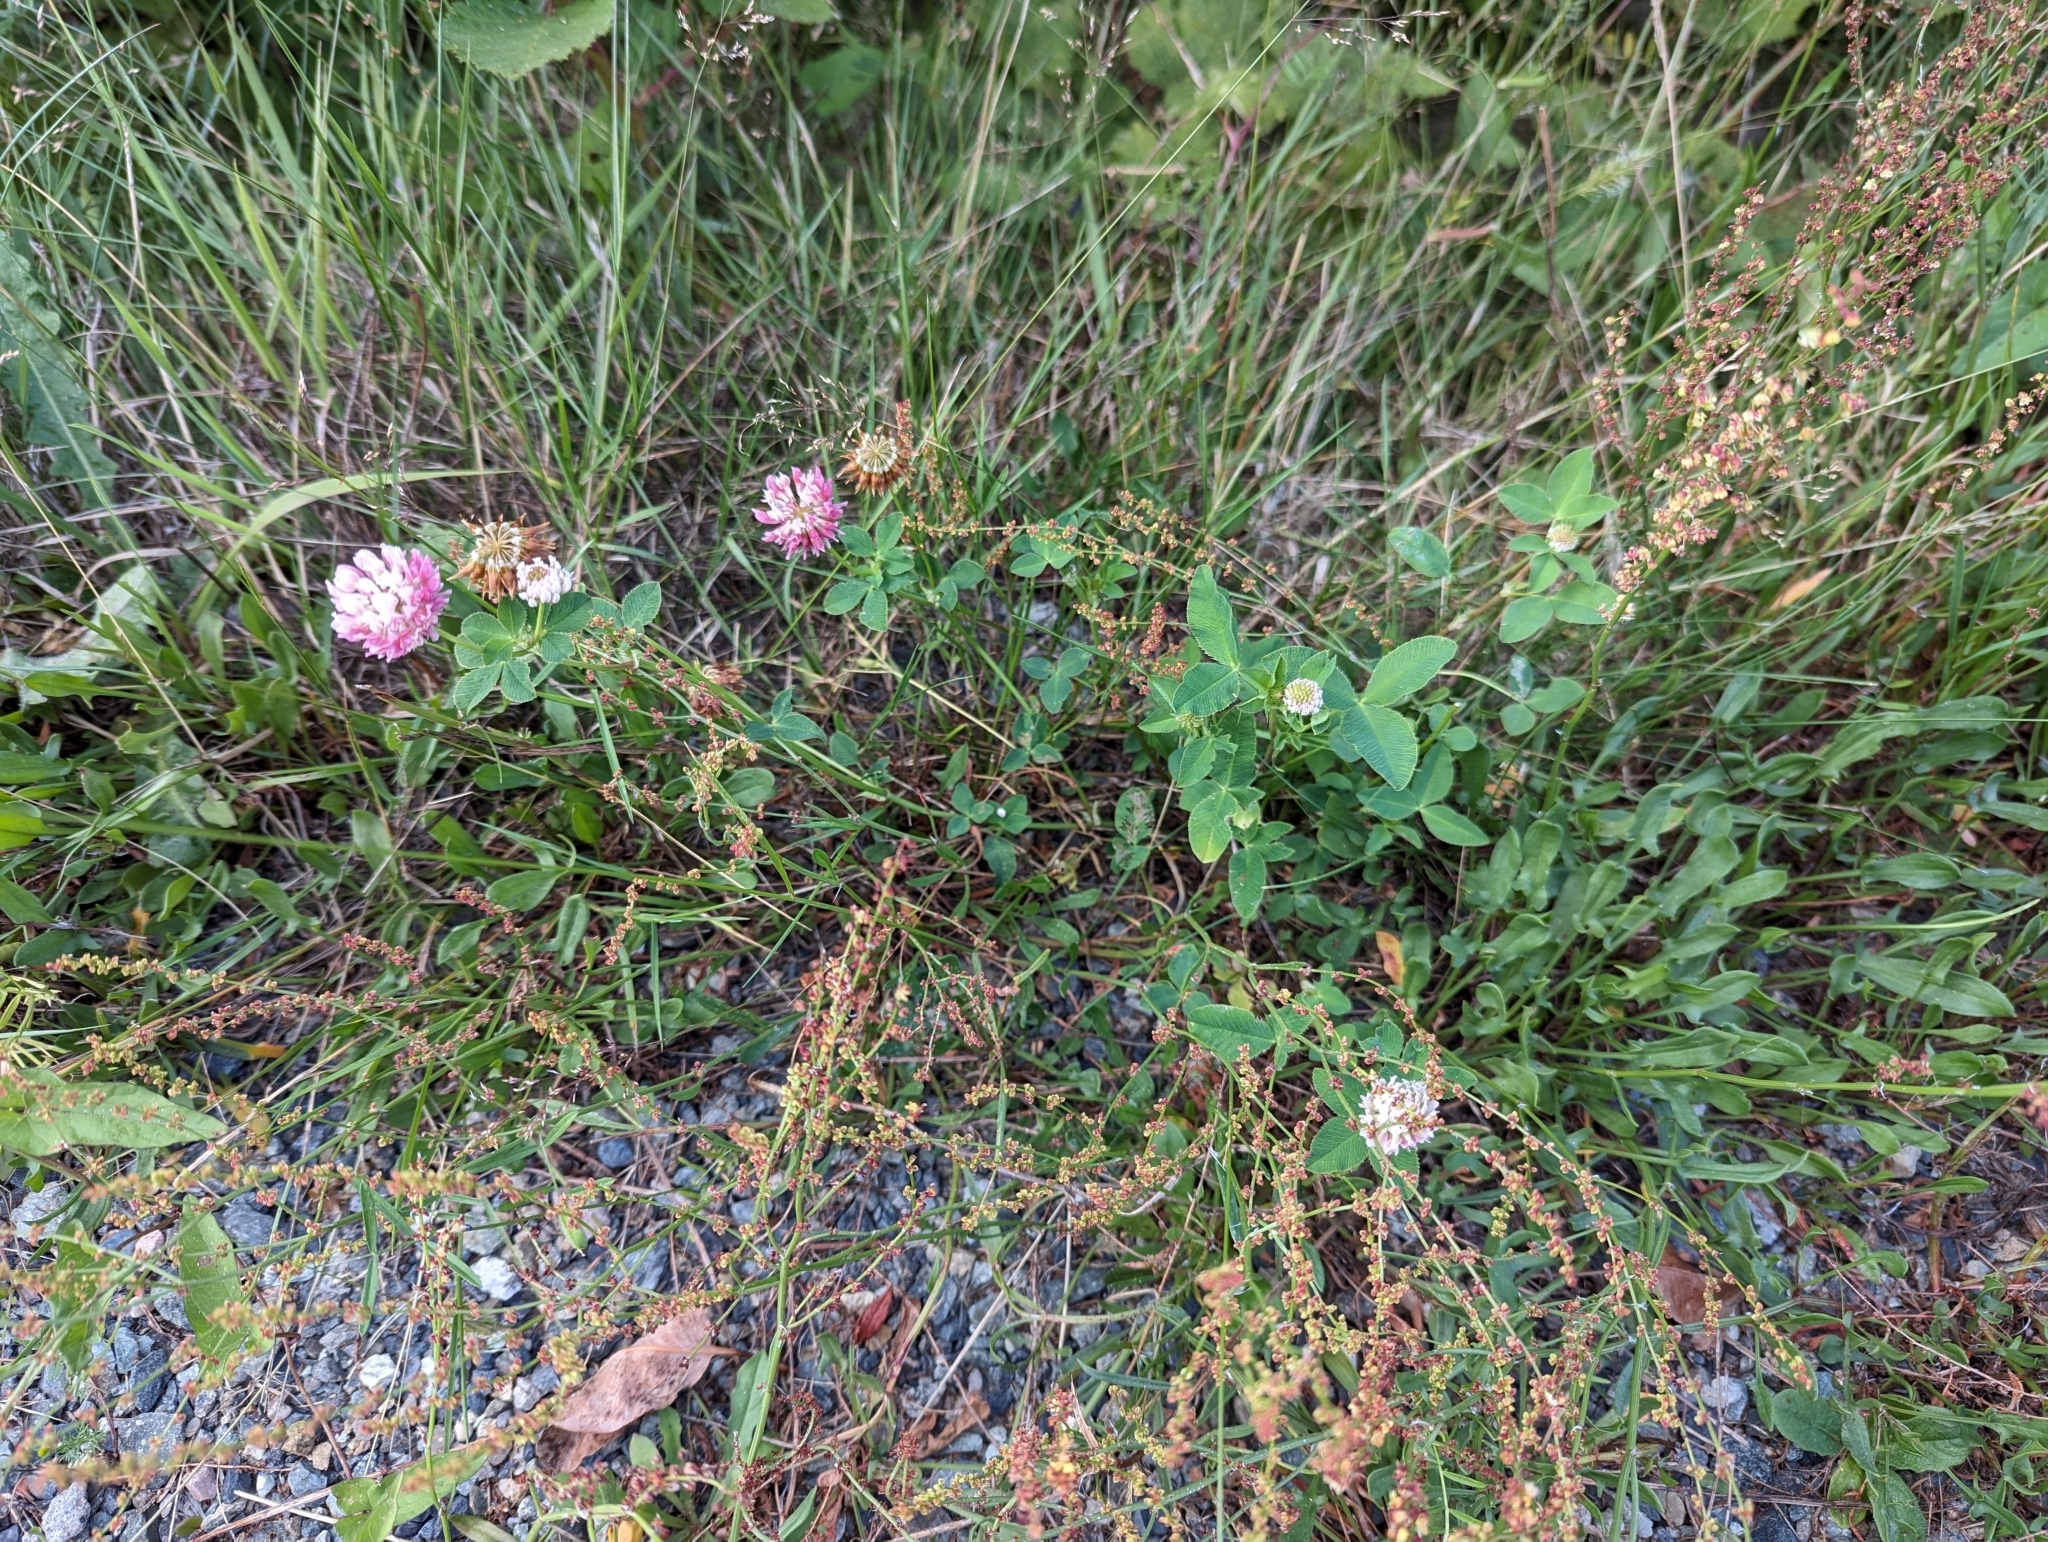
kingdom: Plantae
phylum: Tracheophyta
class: Magnoliopsida
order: Fabales
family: Fabaceae
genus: Trifolium
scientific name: Trifolium hybridum
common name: Alsike clover
